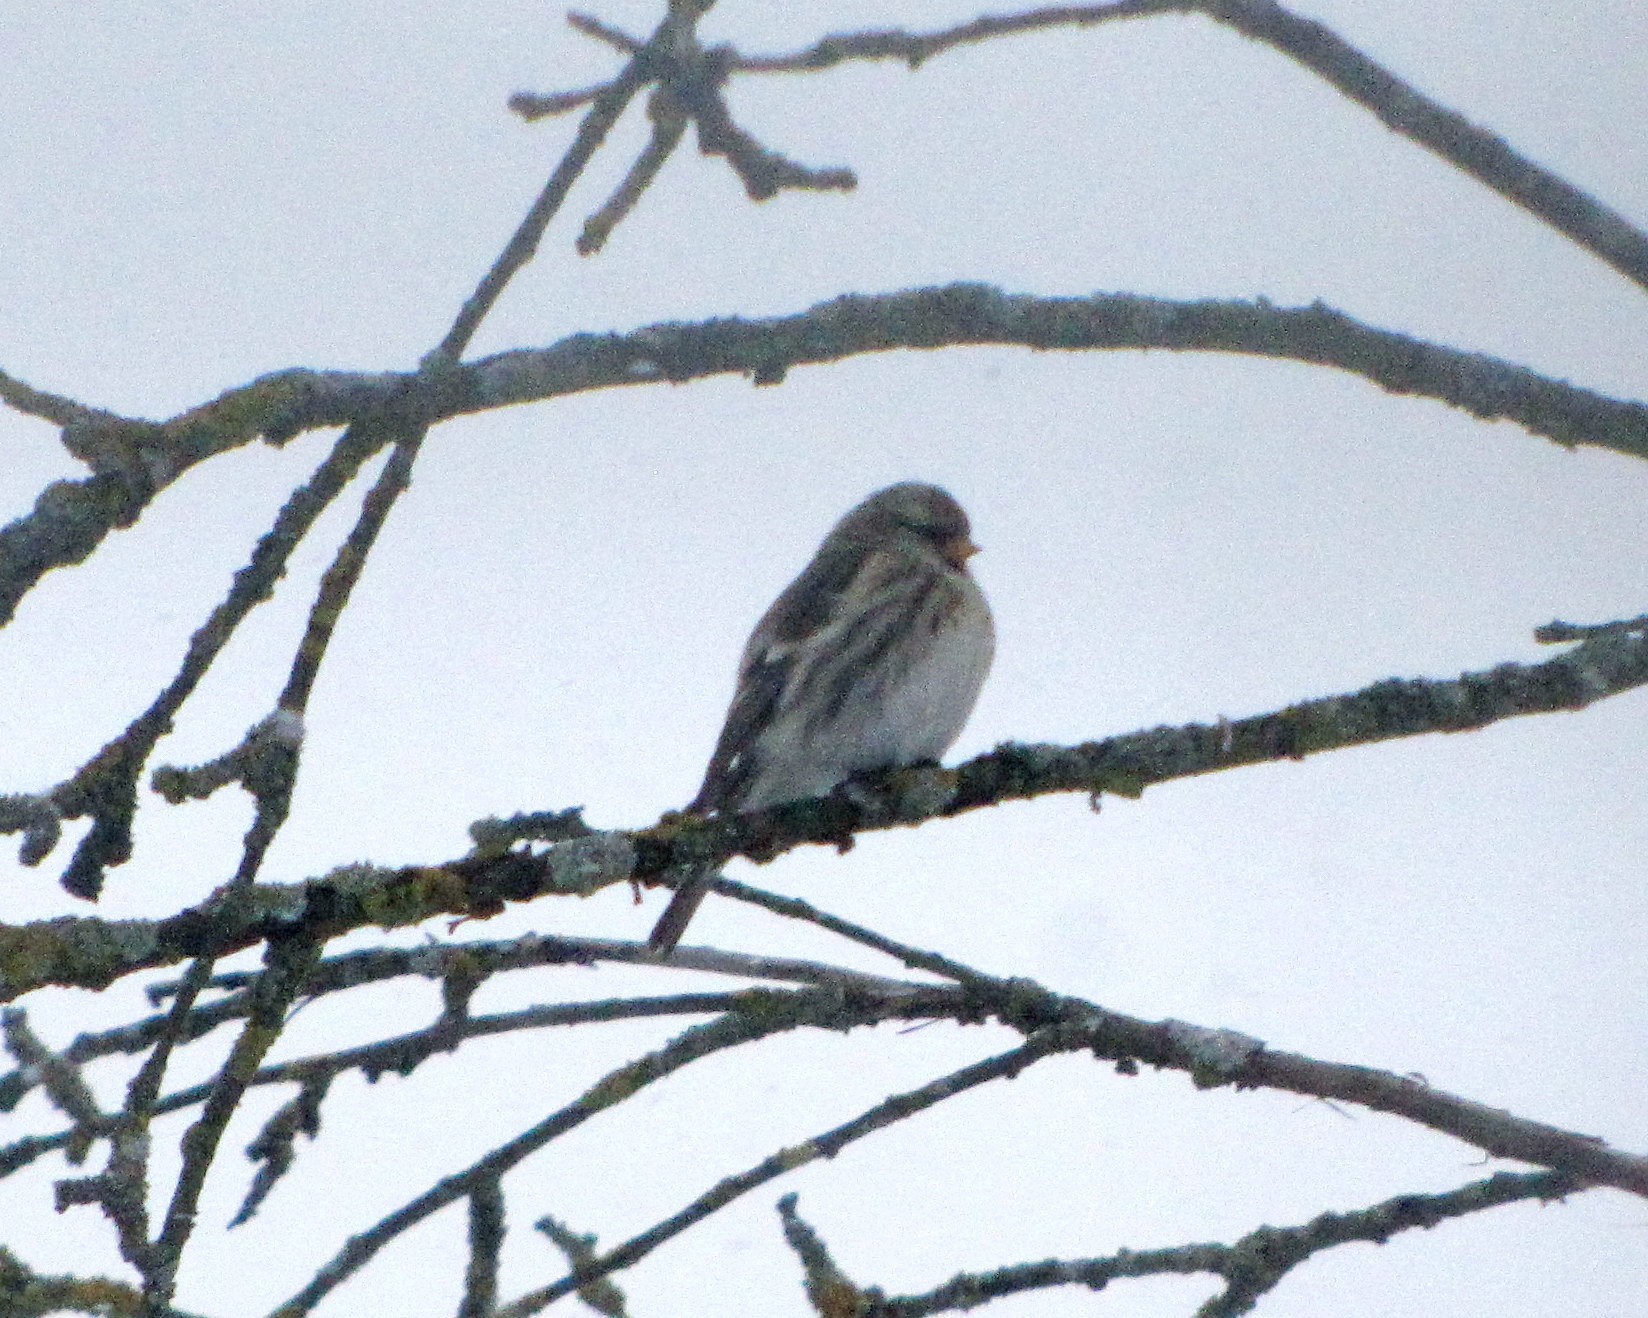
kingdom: Animalia
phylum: Chordata
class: Aves
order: Passeriformes
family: Fringillidae
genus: Acanthis
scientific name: Acanthis flammea
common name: Common redpoll
